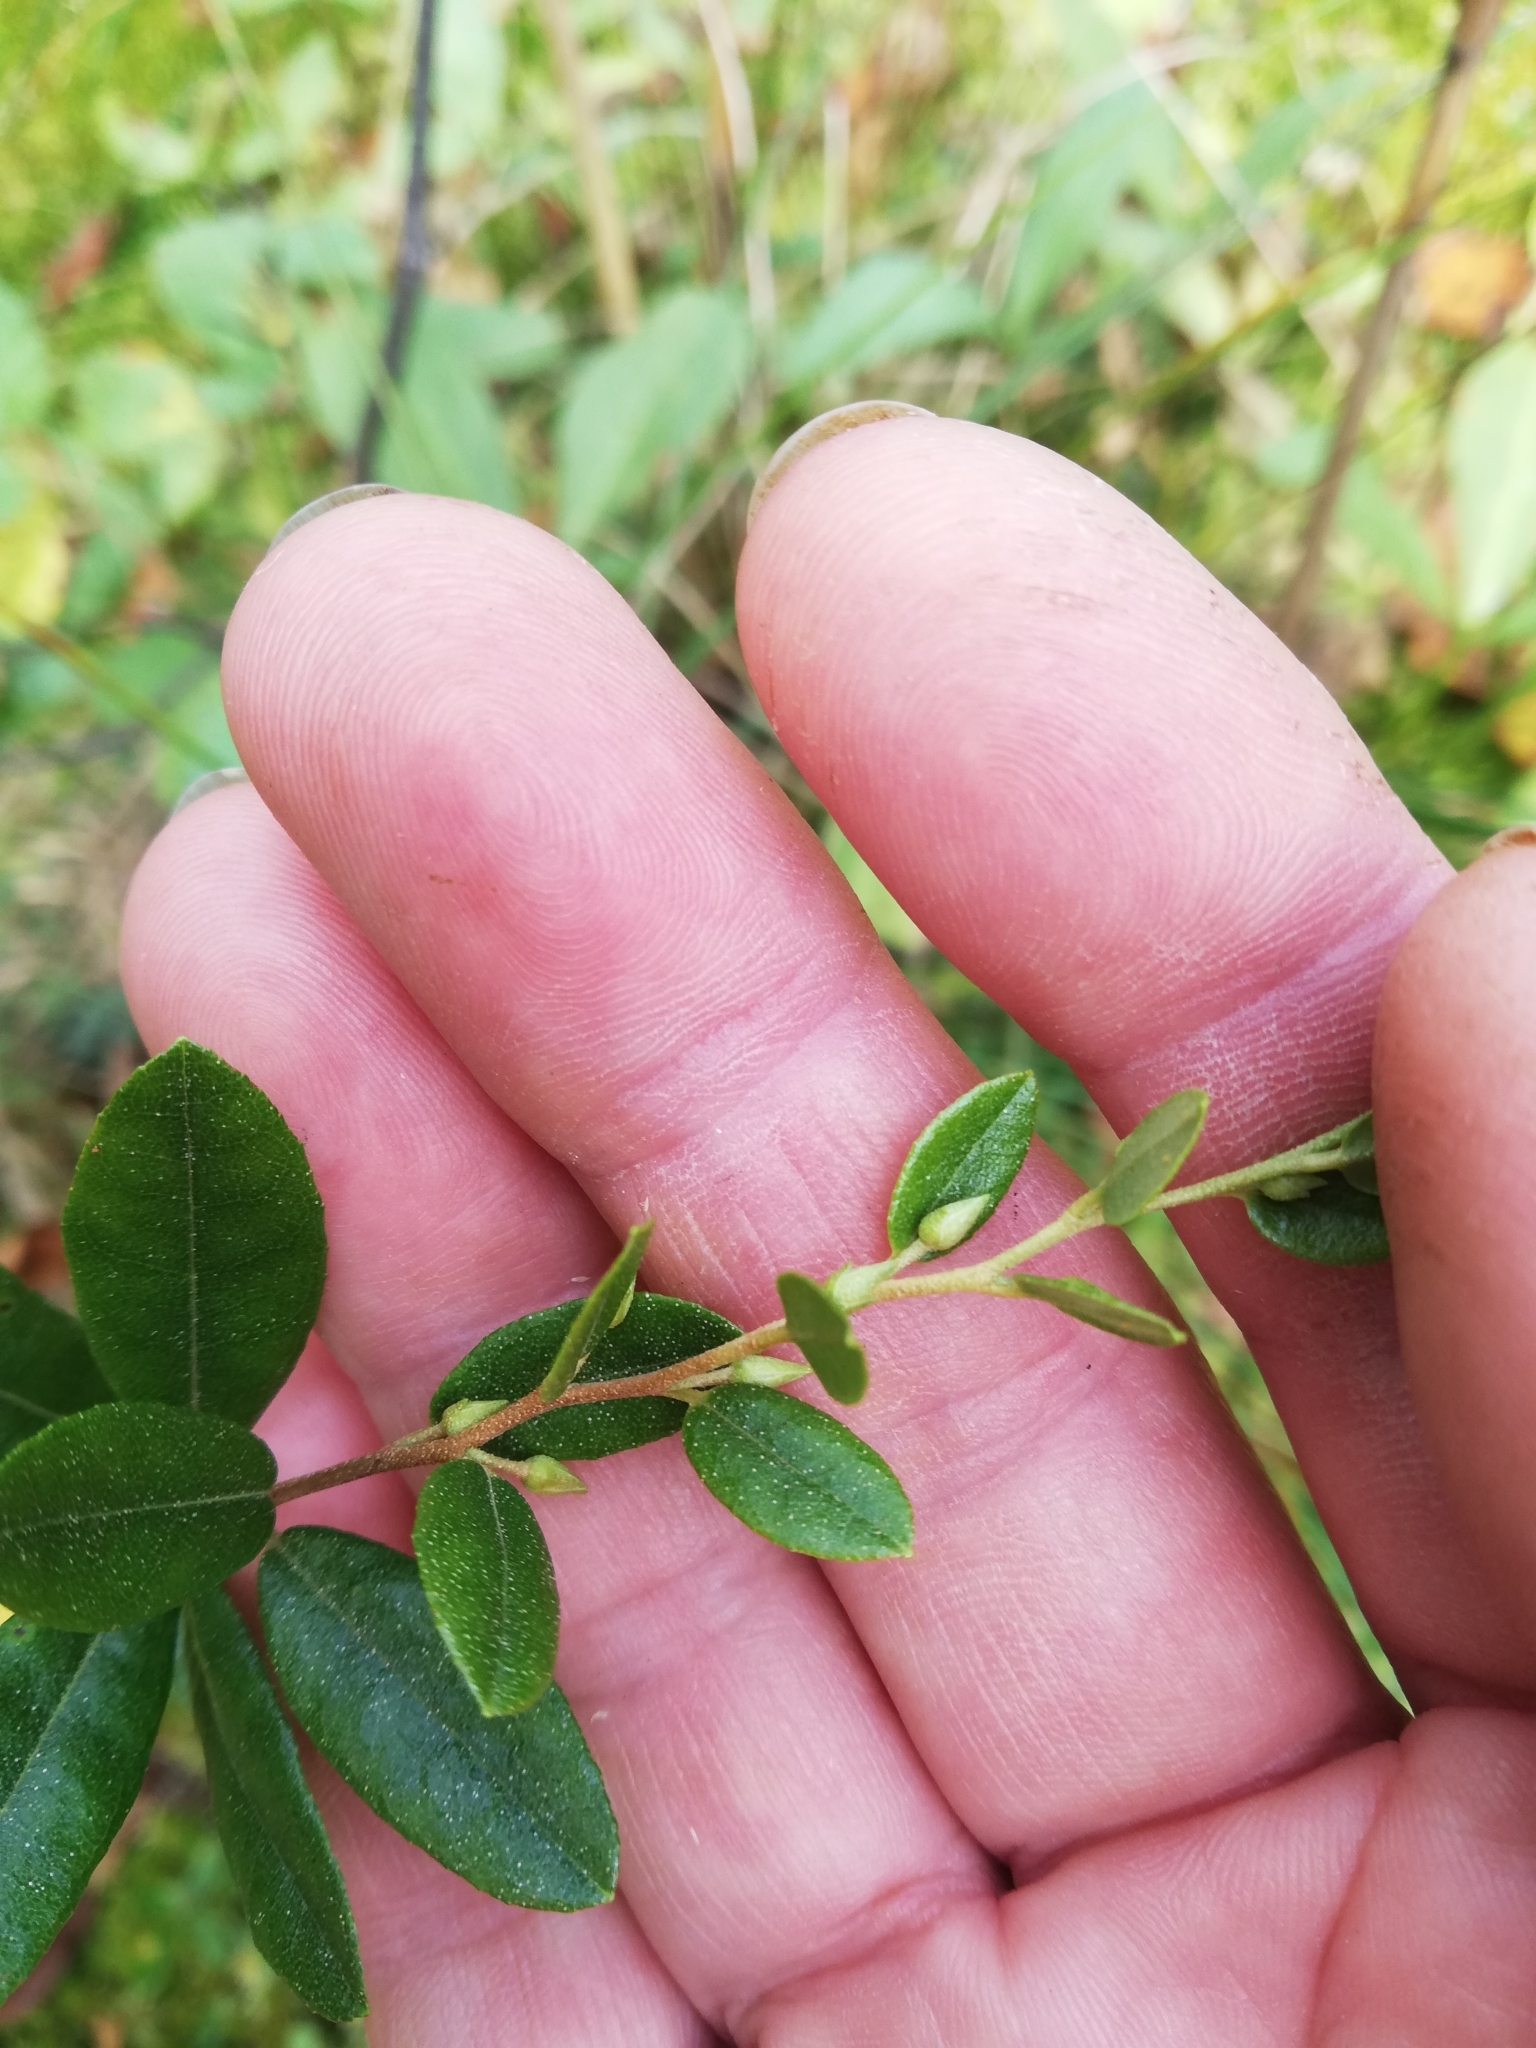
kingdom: Plantae
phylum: Tracheophyta
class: Magnoliopsida
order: Ericales
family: Ericaceae
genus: Chamaedaphne
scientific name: Chamaedaphne calyculata
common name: Leatherleaf
